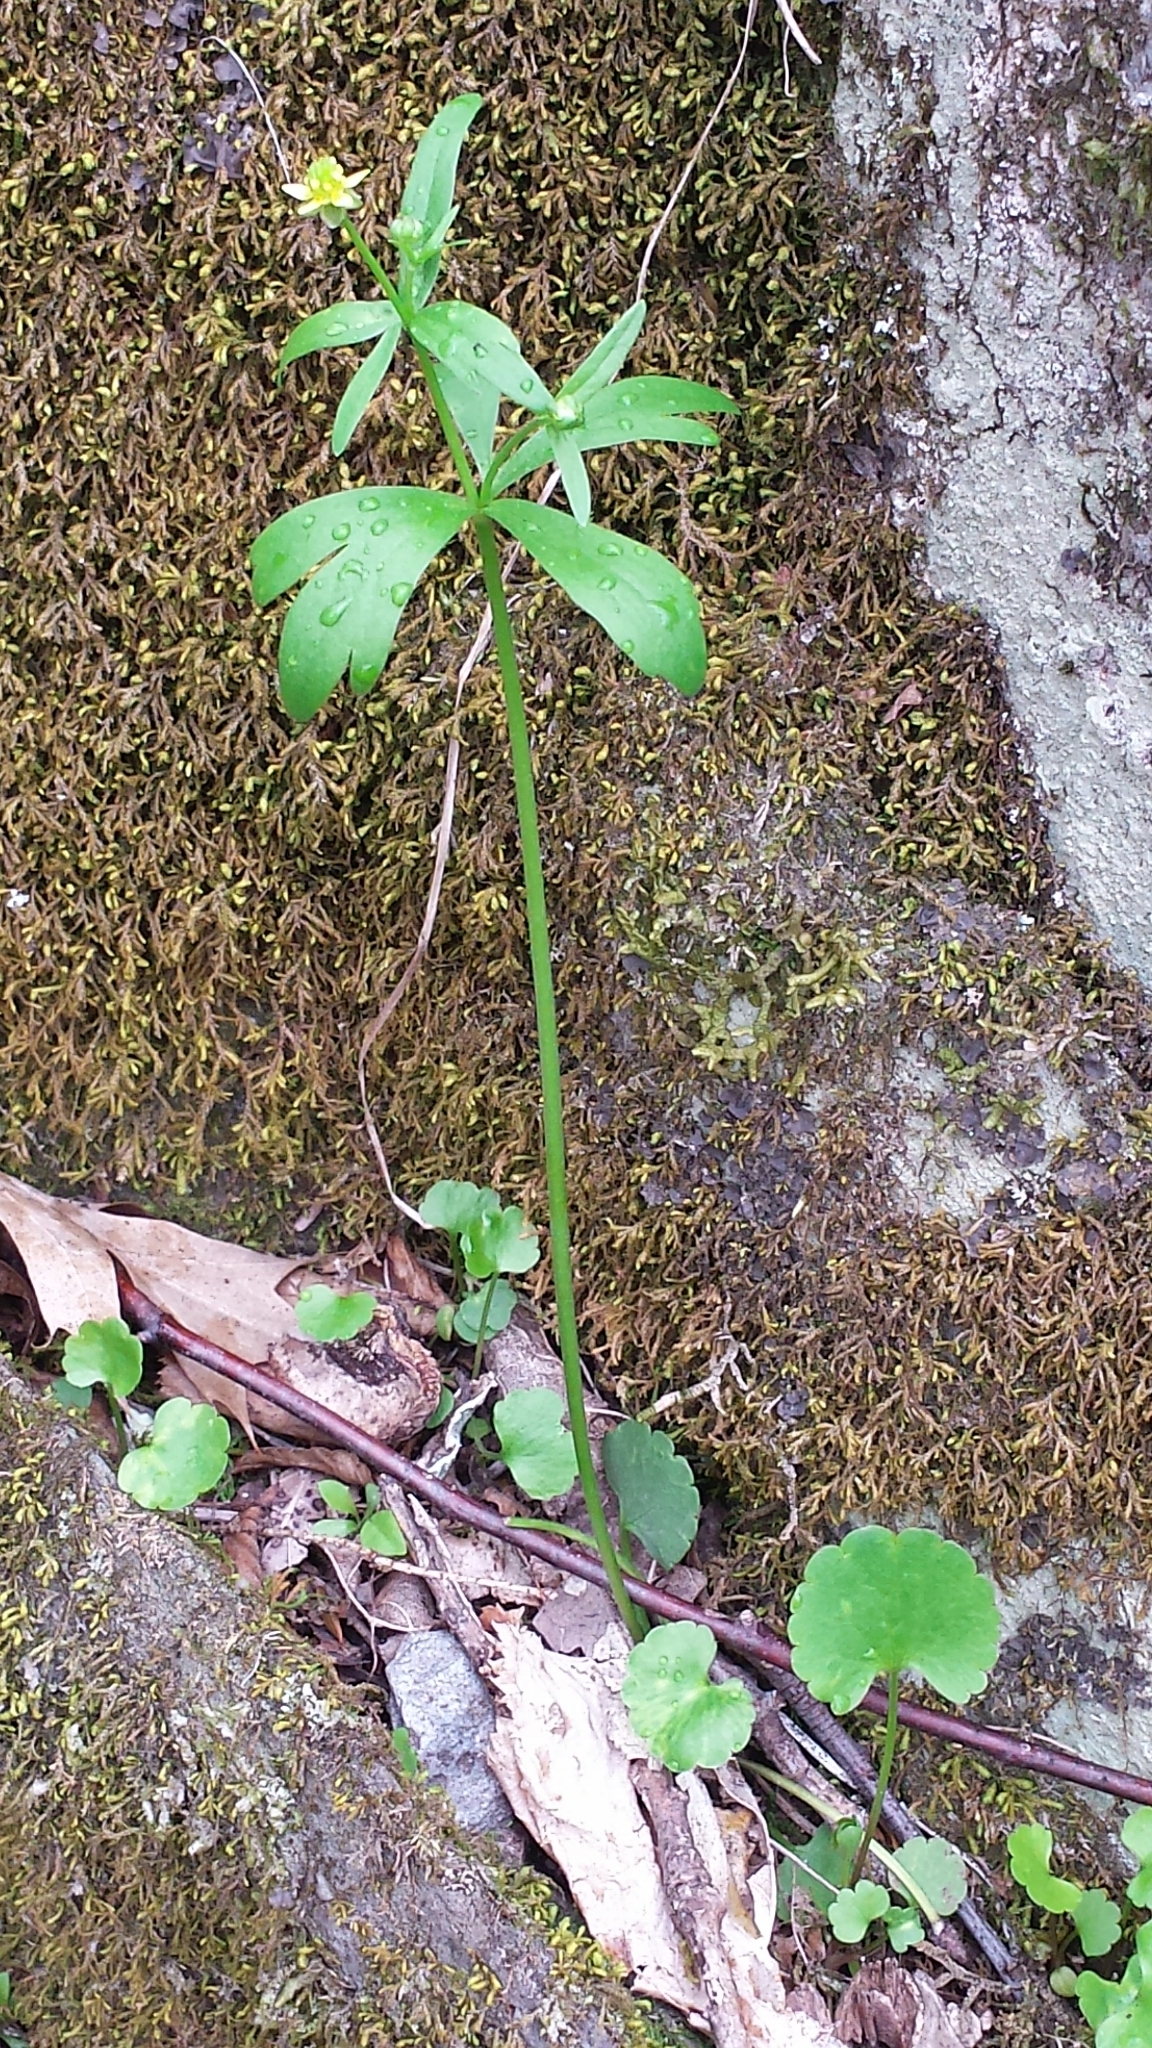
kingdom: Plantae
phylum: Tracheophyta
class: Magnoliopsida
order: Ranunculales
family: Ranunculaceae
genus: Ranunculus
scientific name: Ranunculus abortivus
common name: Early wood buttercup
